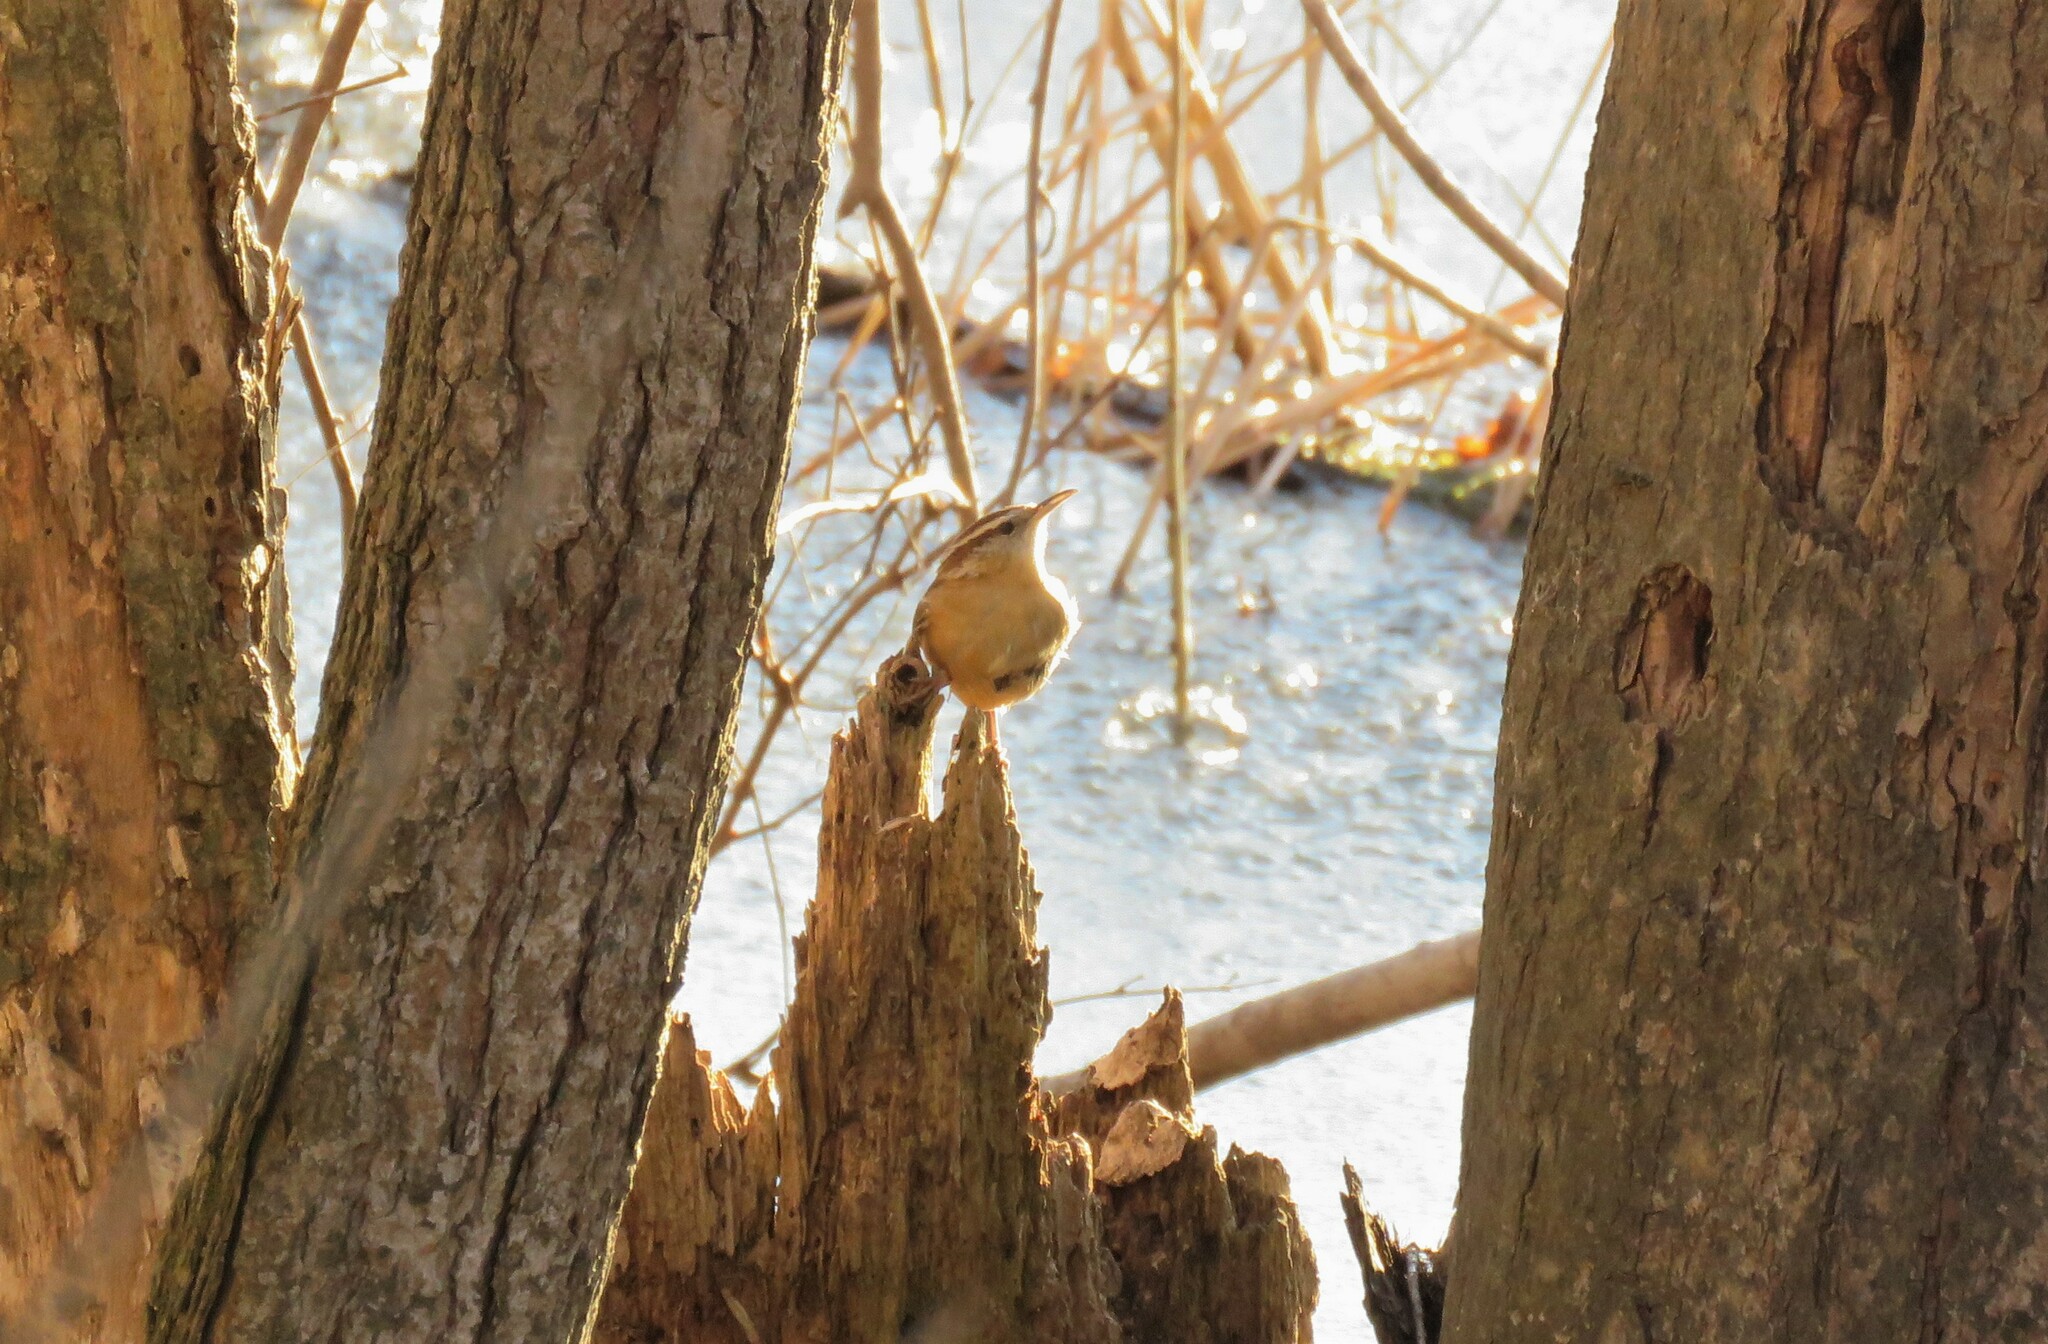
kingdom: Animalia
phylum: Chordata
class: Aves
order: Passeriformes
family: Troglodytidae
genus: Thryothorus
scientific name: Thryothorus ludovicianus
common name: Carolina wren
